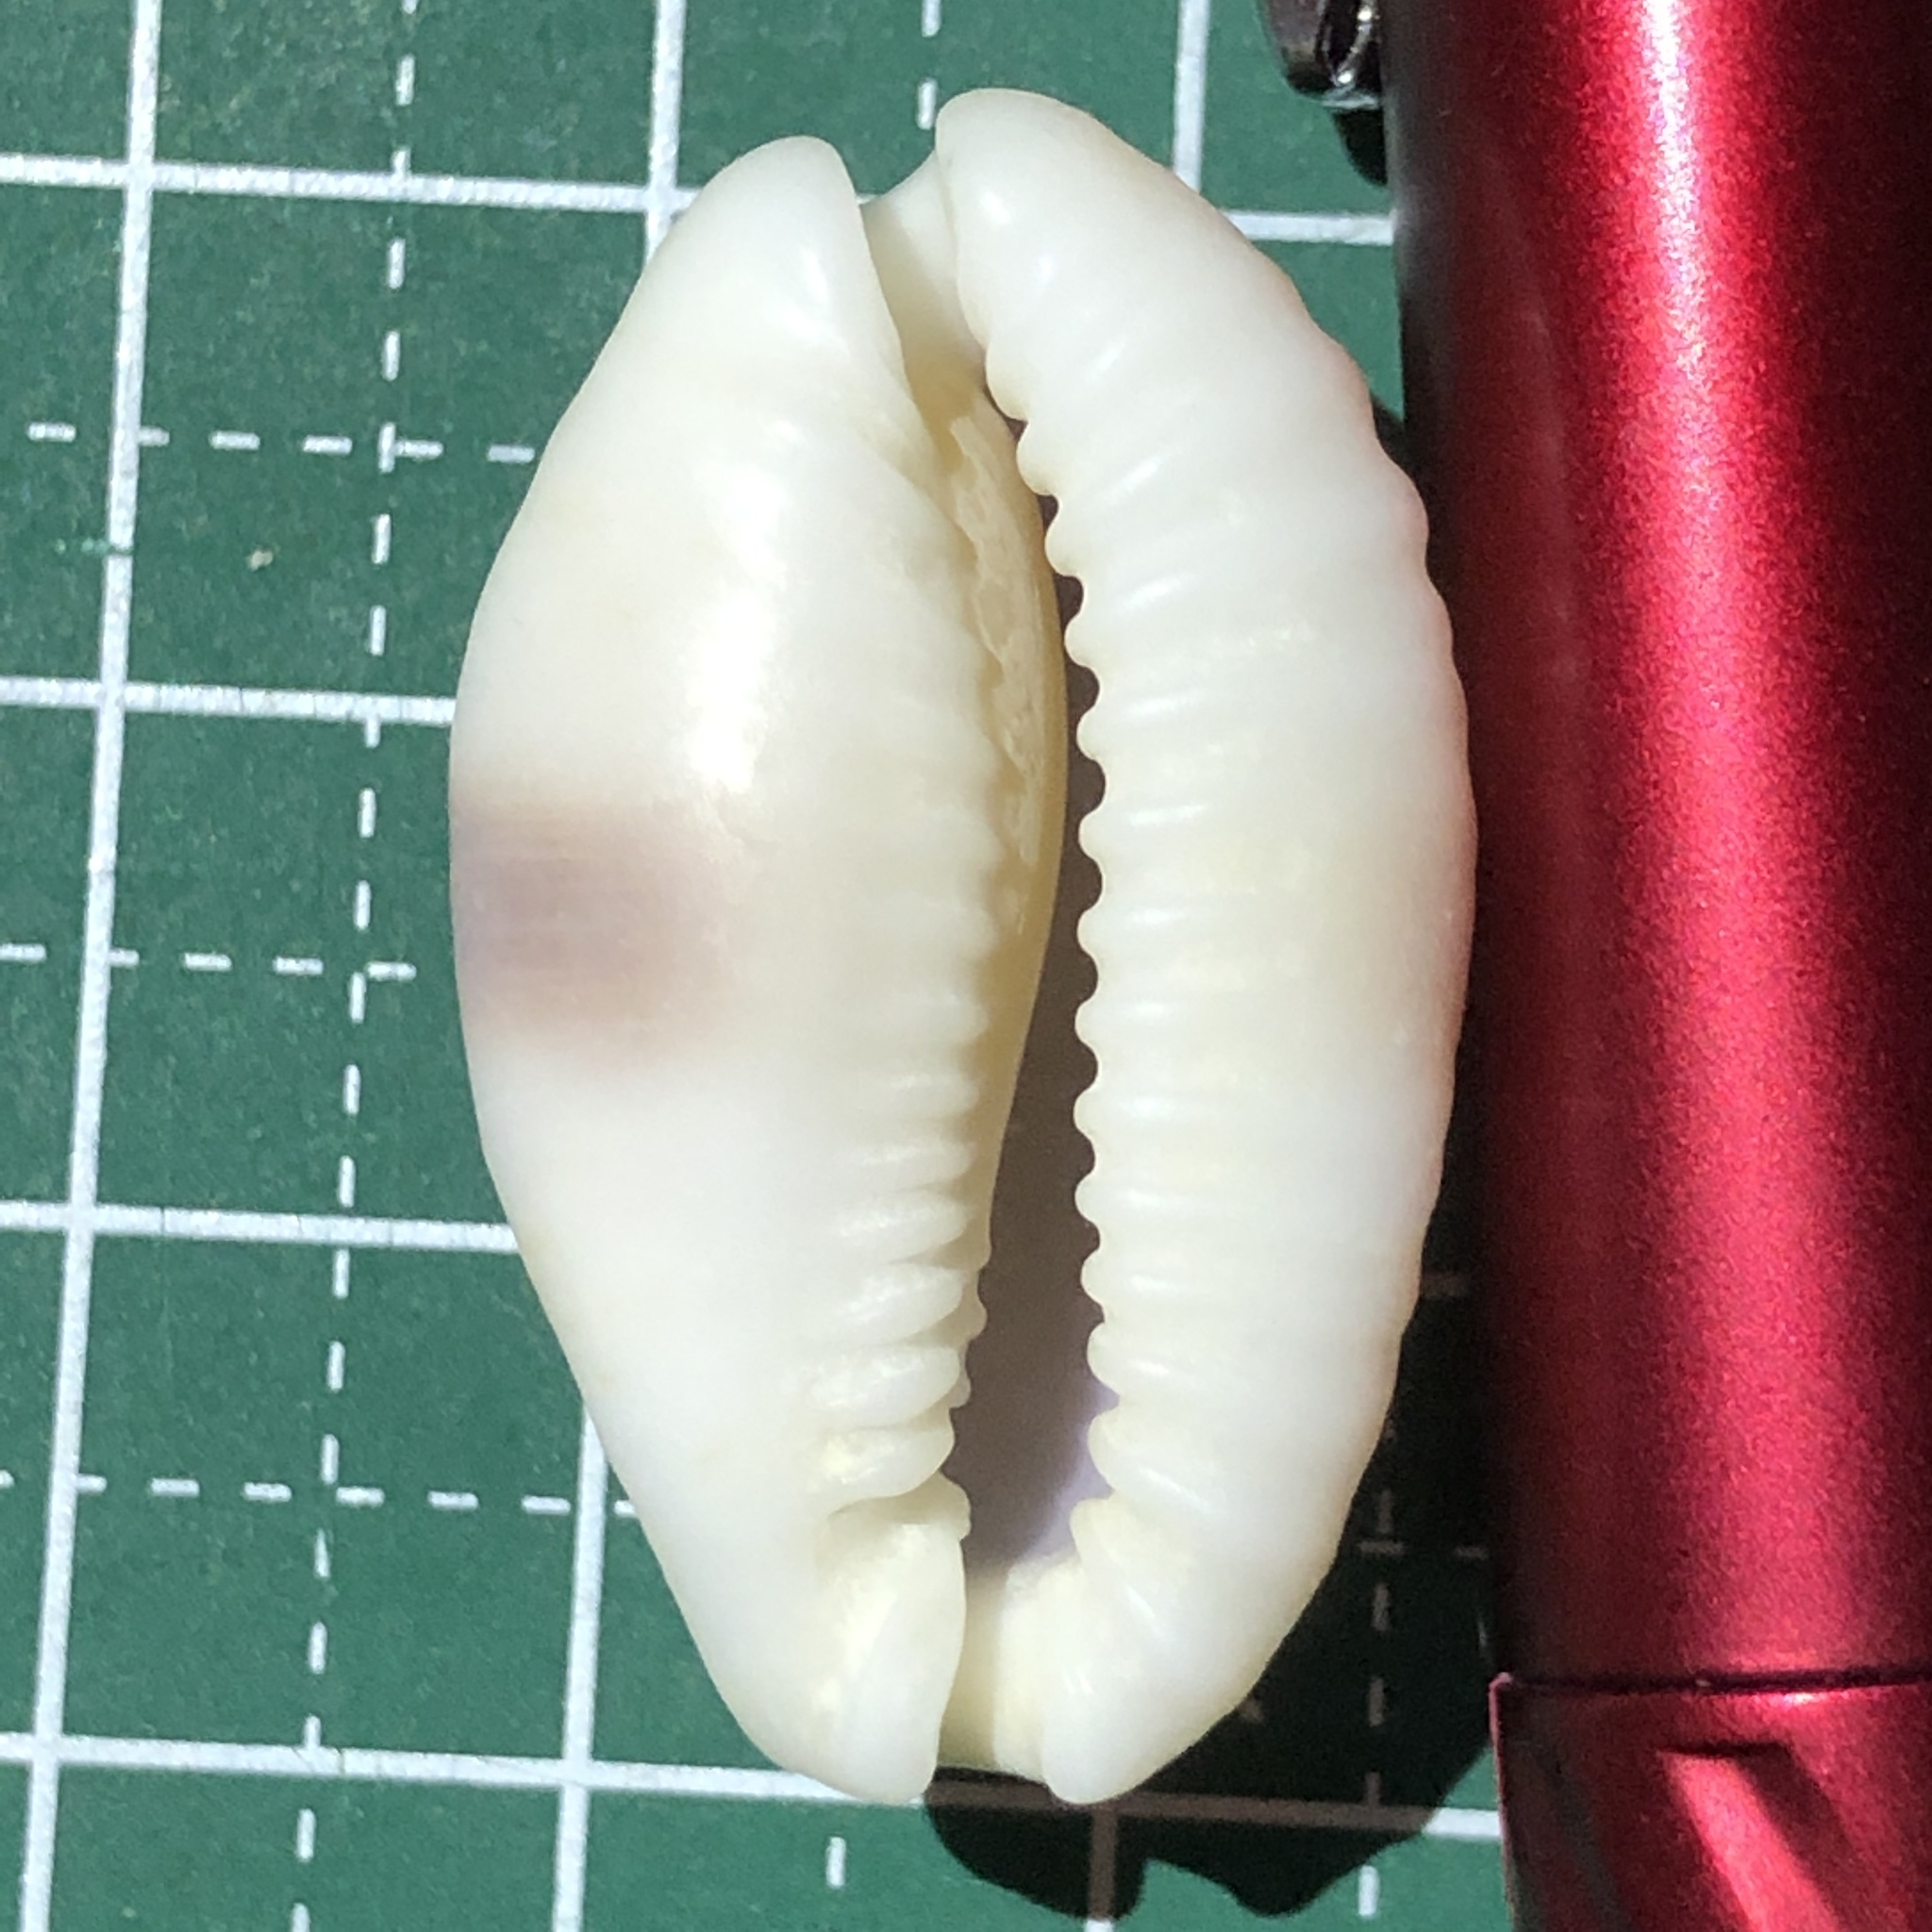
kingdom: Animalia
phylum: Mollusca
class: Gastropoda
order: Littorinimorpha
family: Cypraeidae
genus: Naria
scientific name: Naria erosa
